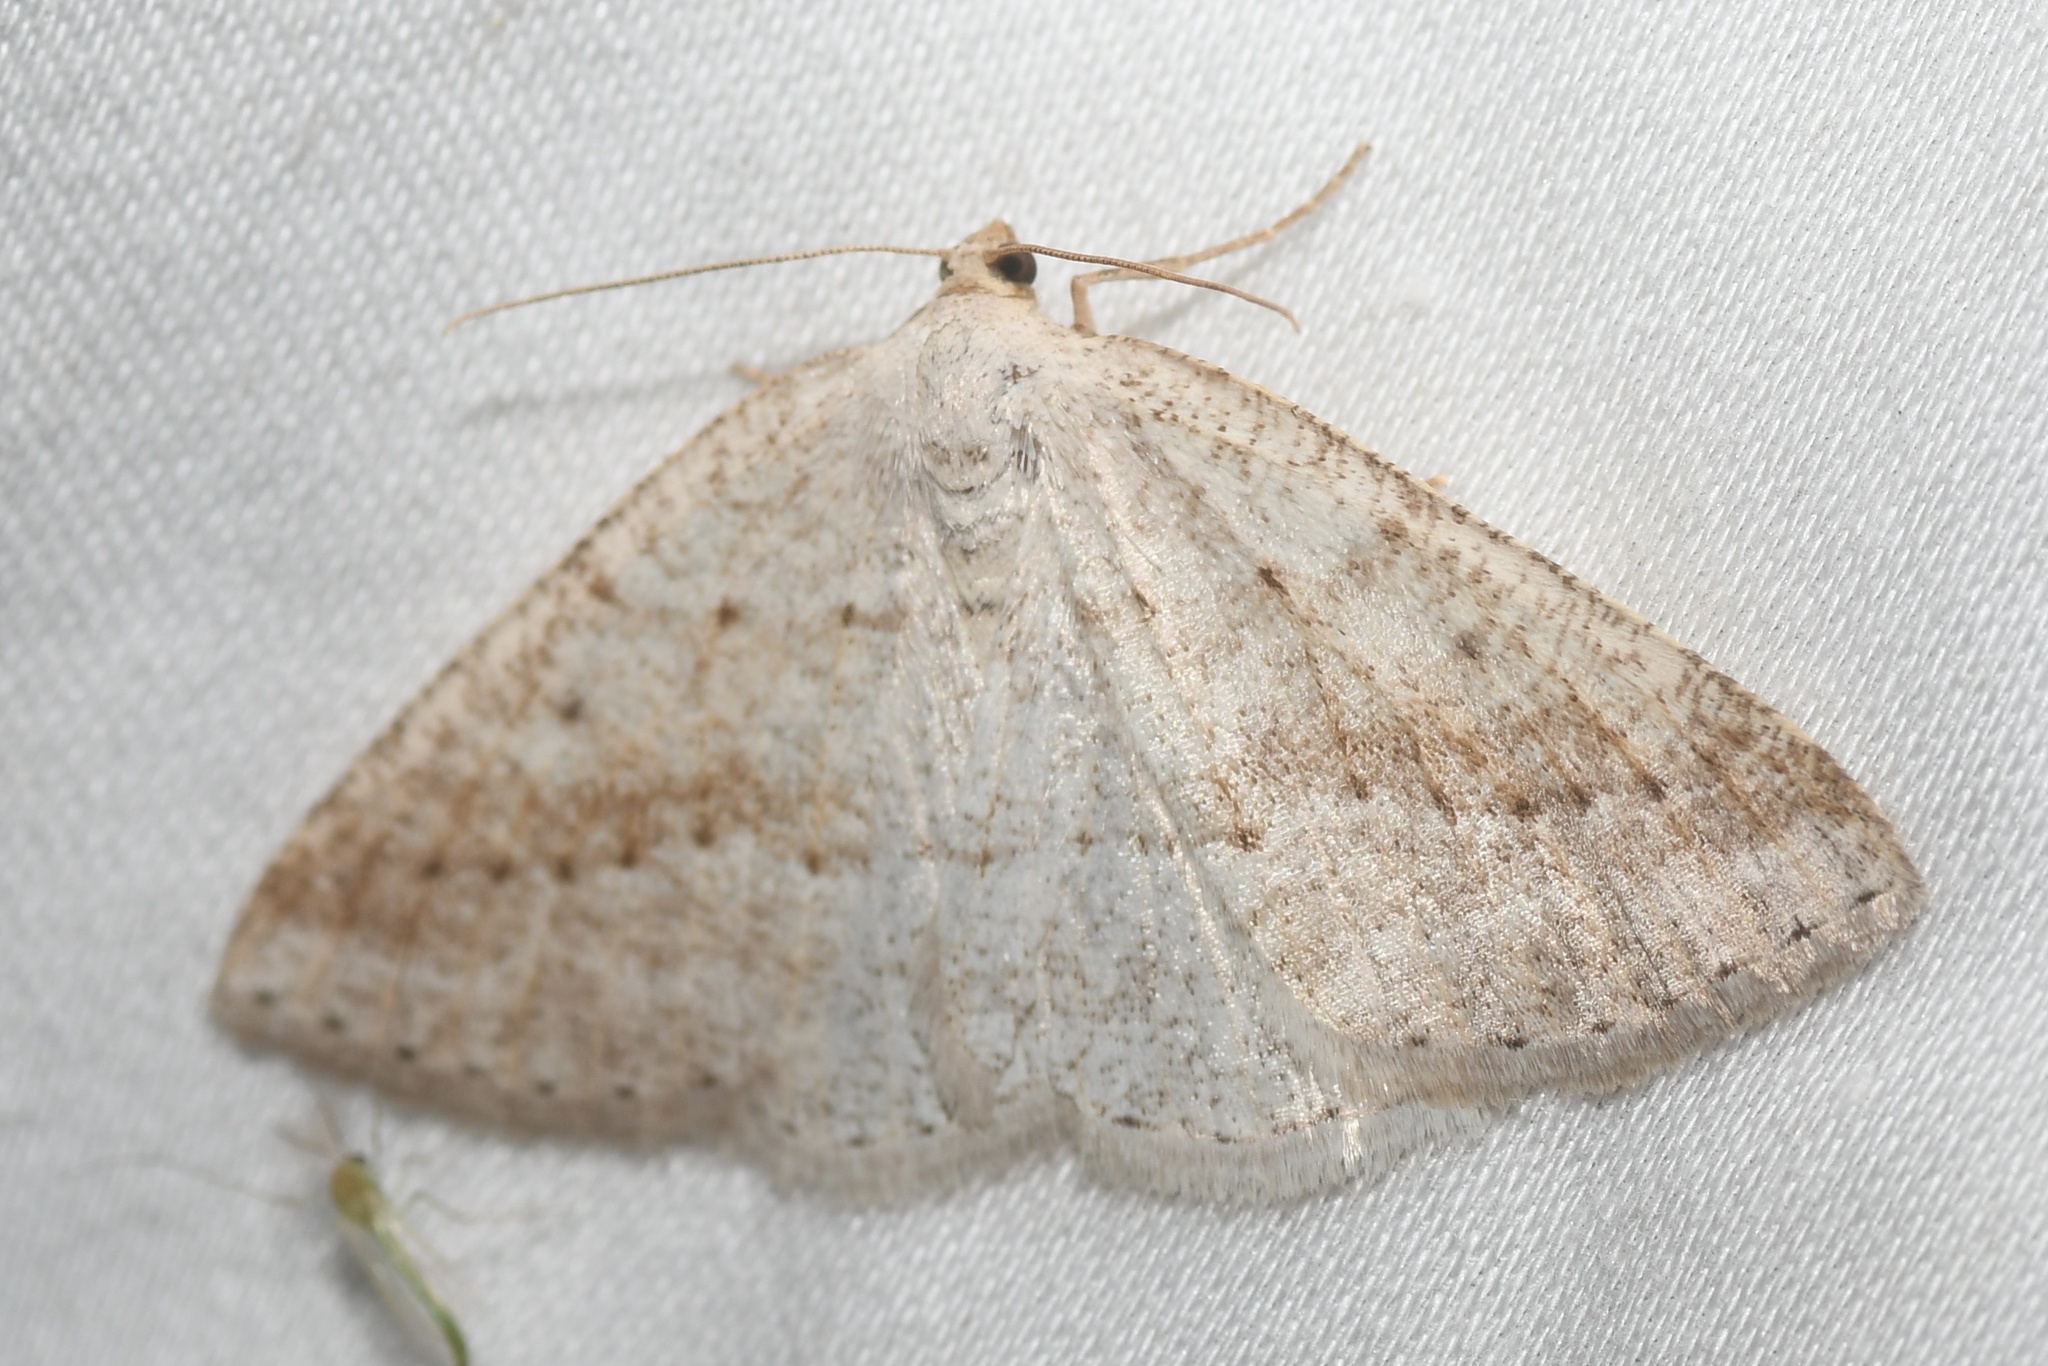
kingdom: Animalia
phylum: Arthropoda
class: Insecta
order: Lepidoptera
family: Geometridae
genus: Tacparia
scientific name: Tacparia detersata
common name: Pale alder moth
